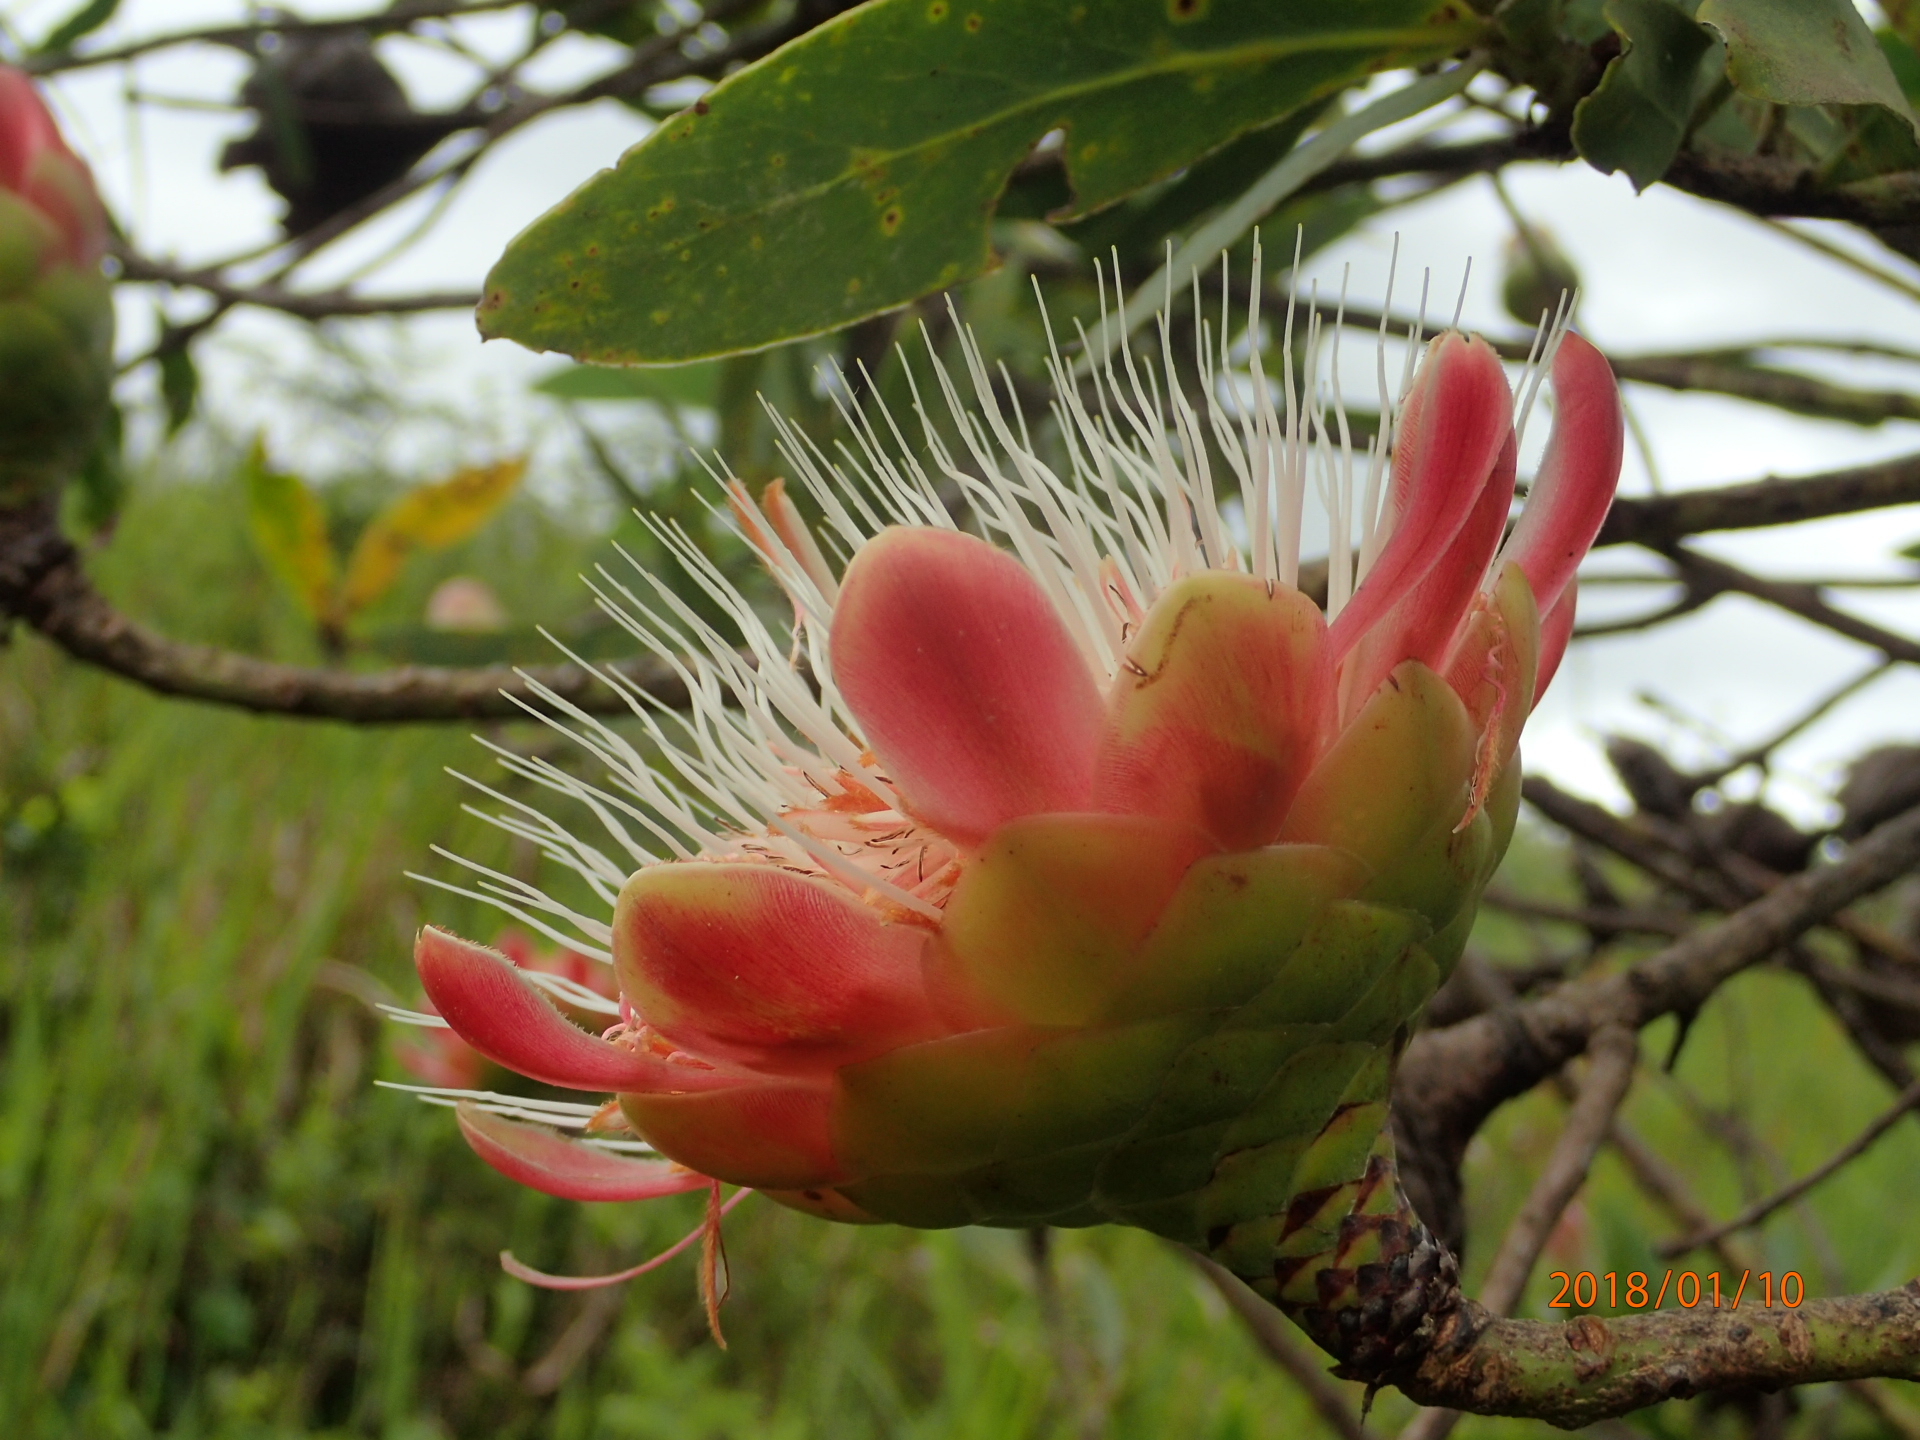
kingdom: Plantae
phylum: Tracheophyta
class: Magnoliopsida
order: Proteales
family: Proteaceae
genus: Protea
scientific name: Protea caffra
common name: Common sugarbush
